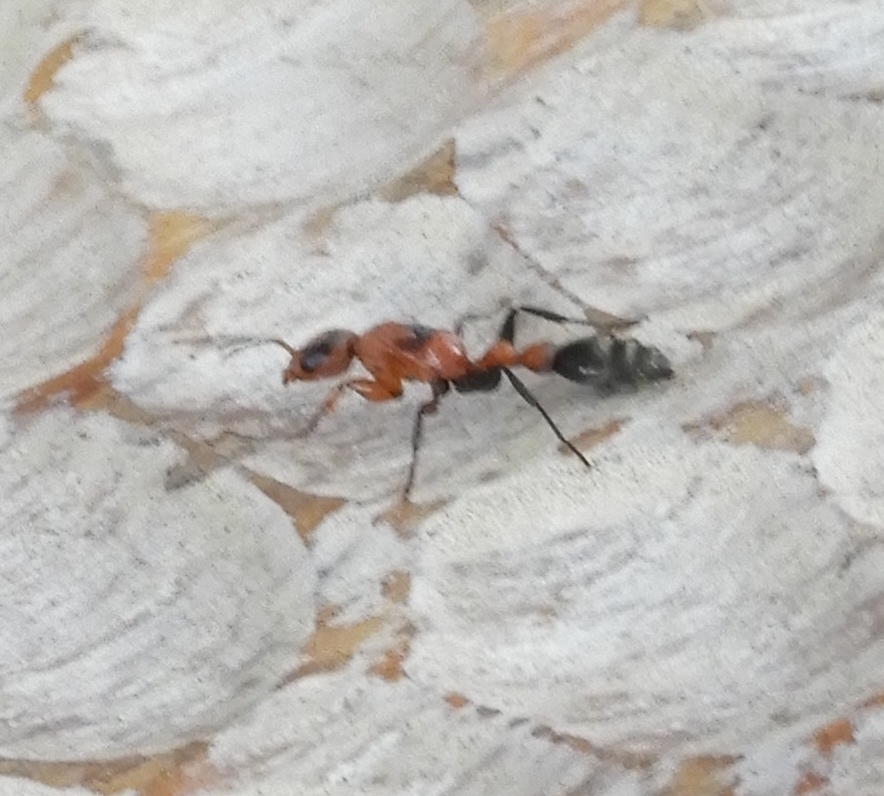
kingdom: Animalia
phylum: Arthropoda
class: Insecta
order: Hymenoptera
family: Formicidae
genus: Pseudomyrmex
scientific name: Pseudomyrmex gracilis
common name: Graceful twig ant
